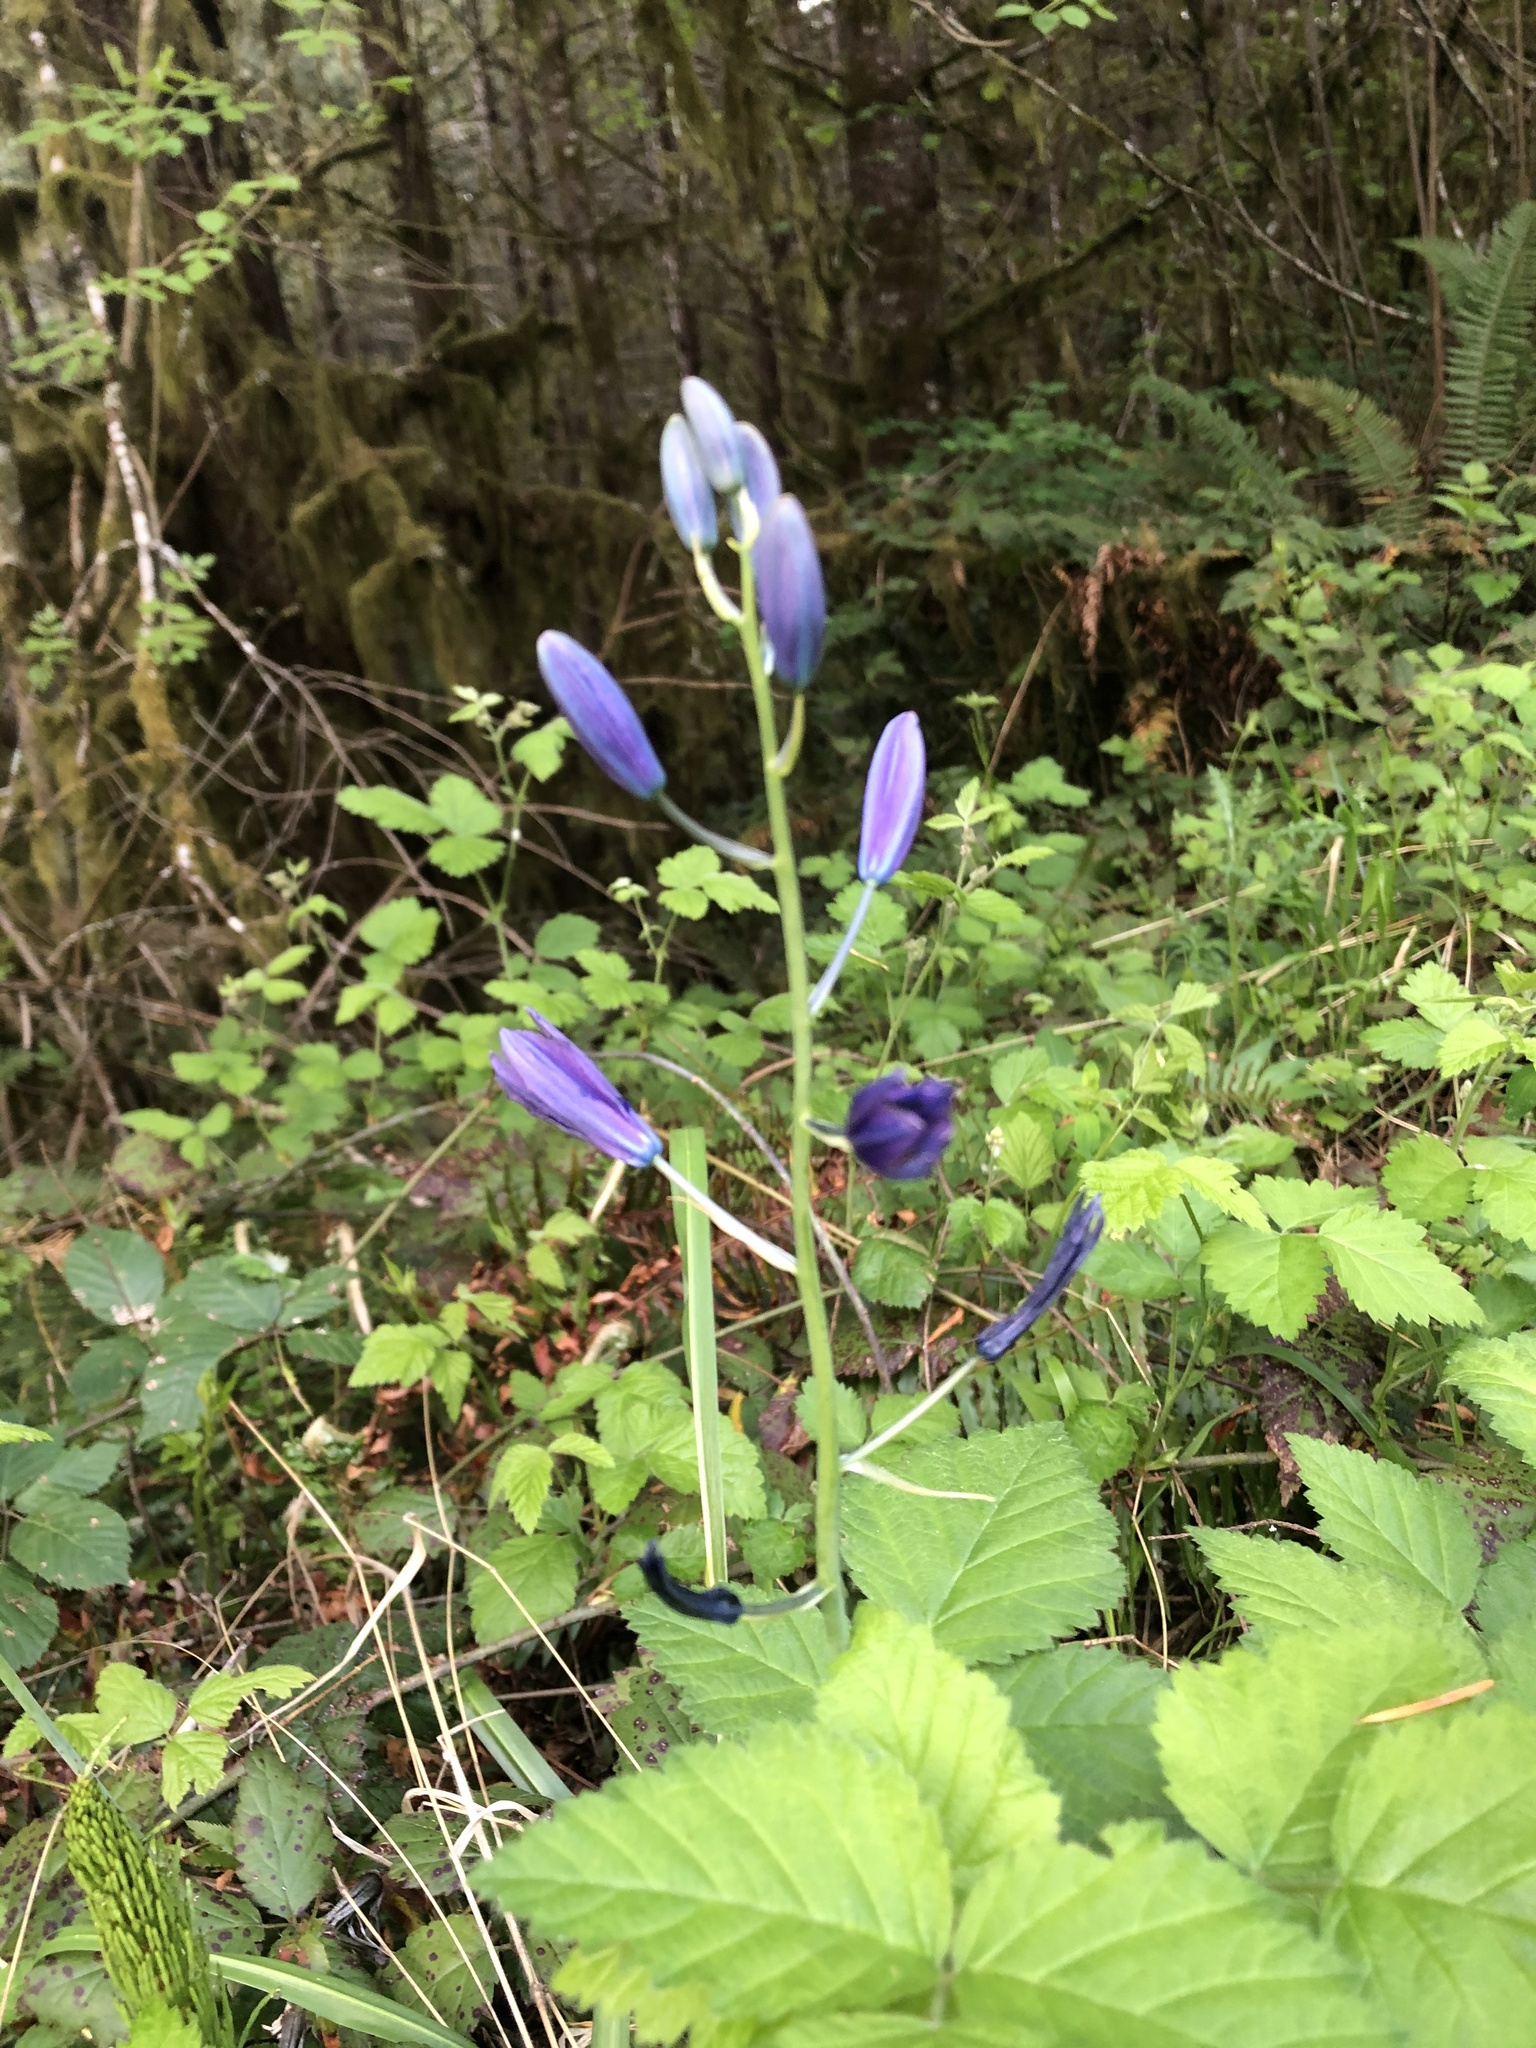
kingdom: Plantae
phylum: Tracheophyta
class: Liliopsida
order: Asparagales
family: Asparagaceae
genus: Camassia
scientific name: Camassia leichtlinii
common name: Leichtlin's camas
